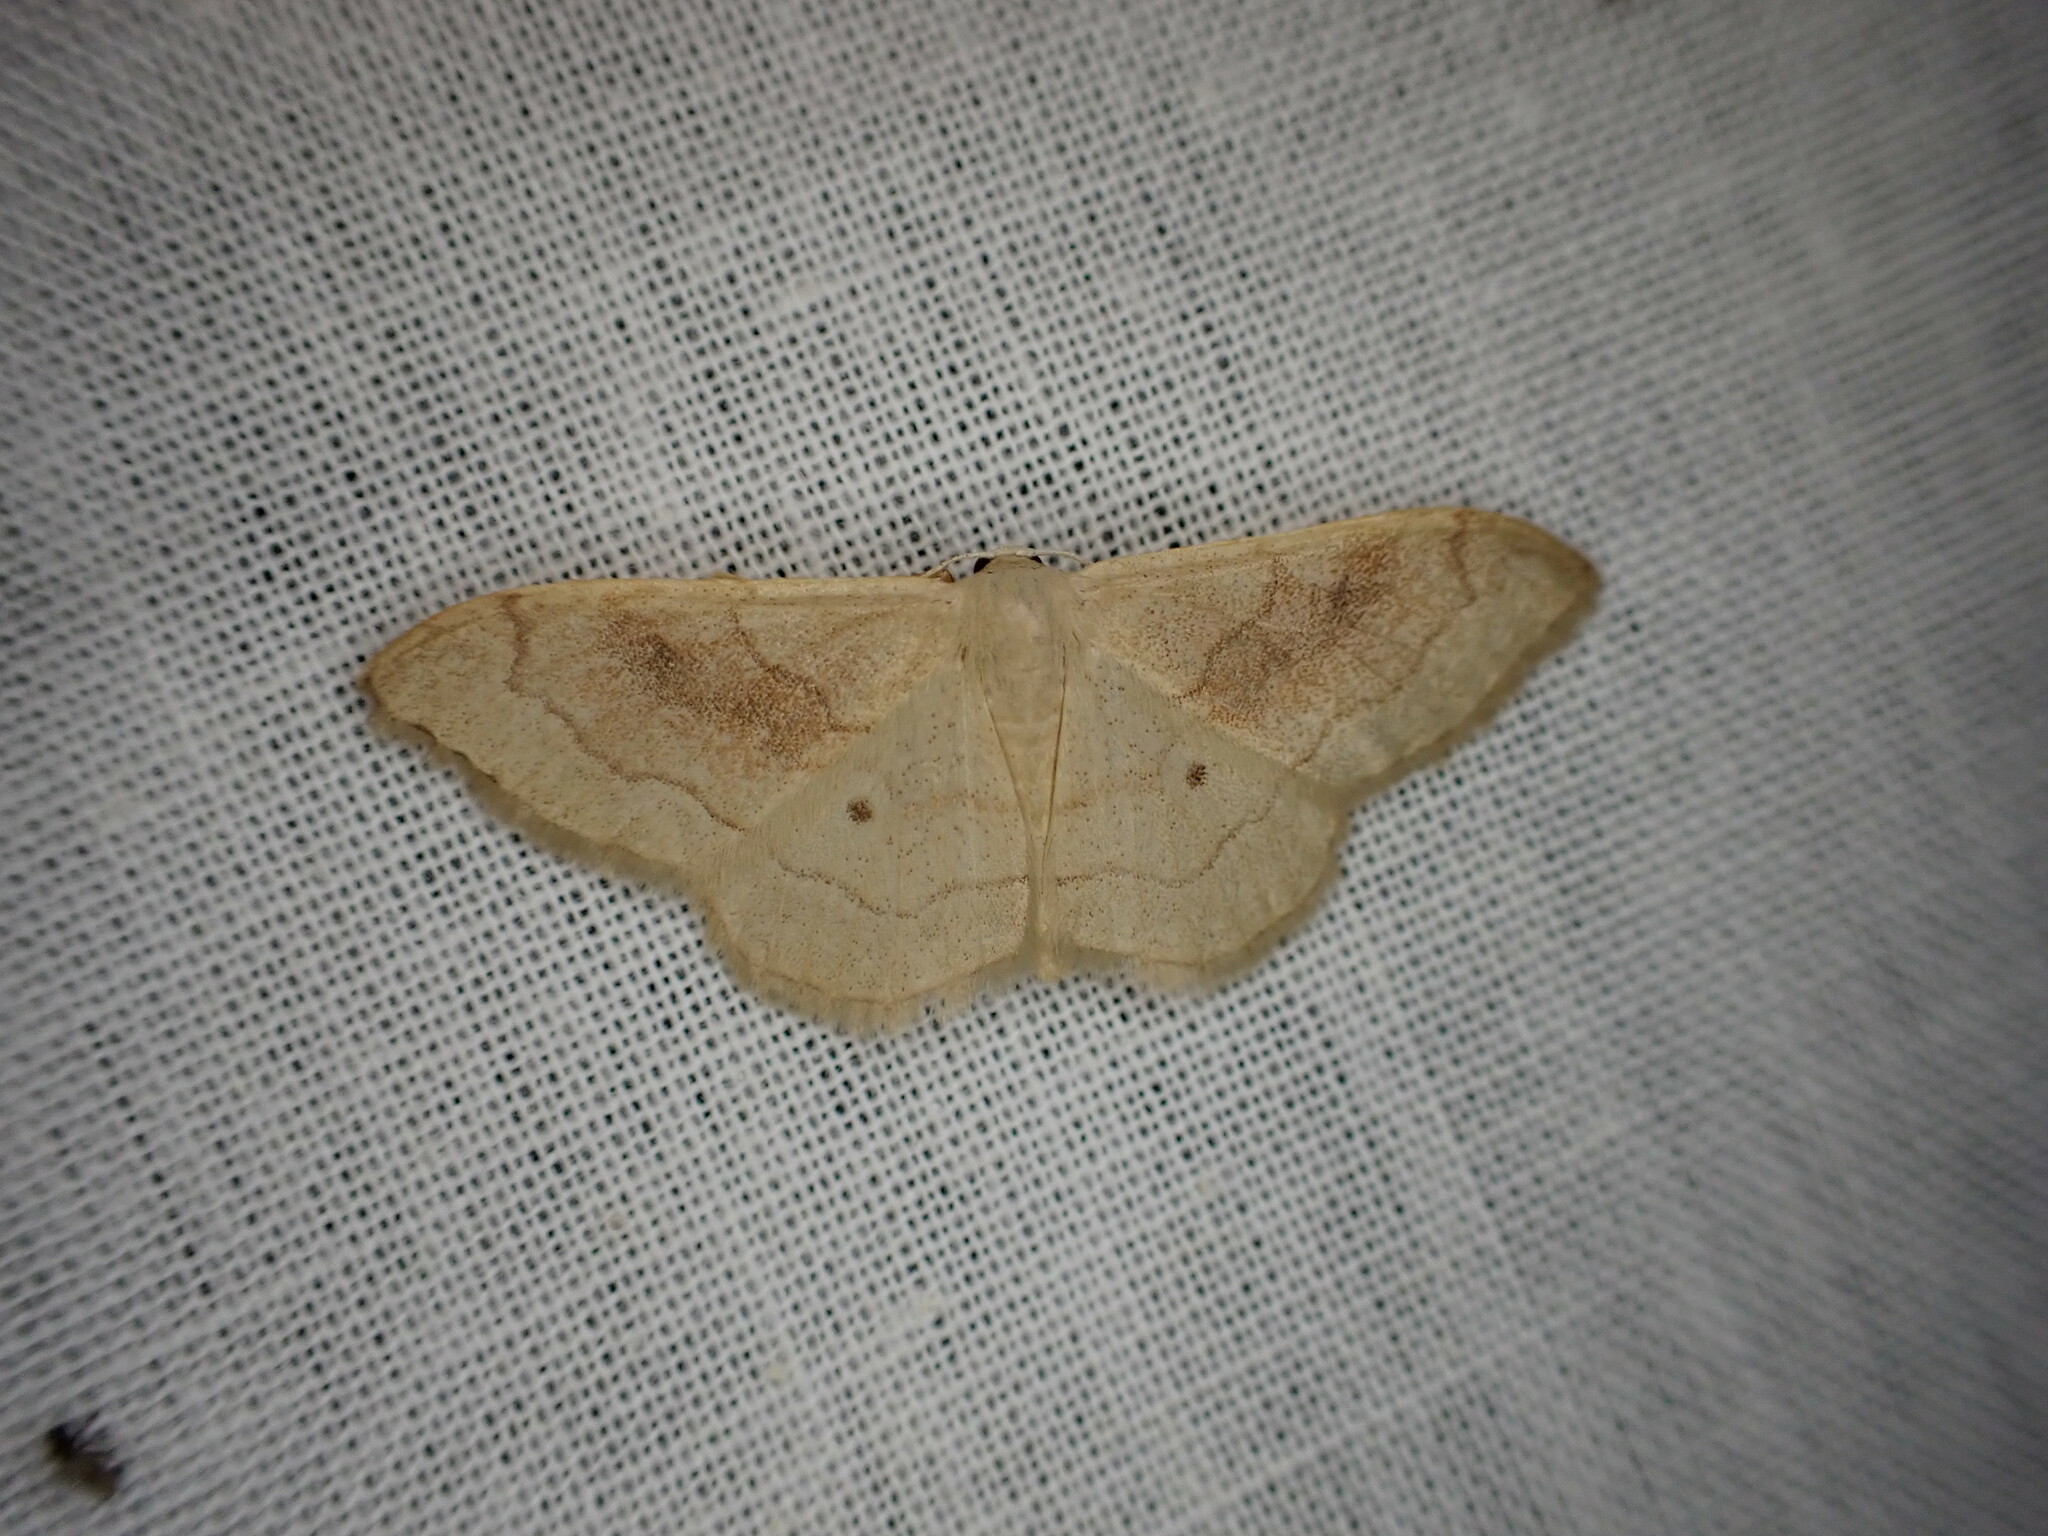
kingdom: Animalia
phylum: Arthropoda
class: Insecta
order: Lepidoptera
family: Geometridae
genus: Idaea
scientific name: Idaea bilinearia
